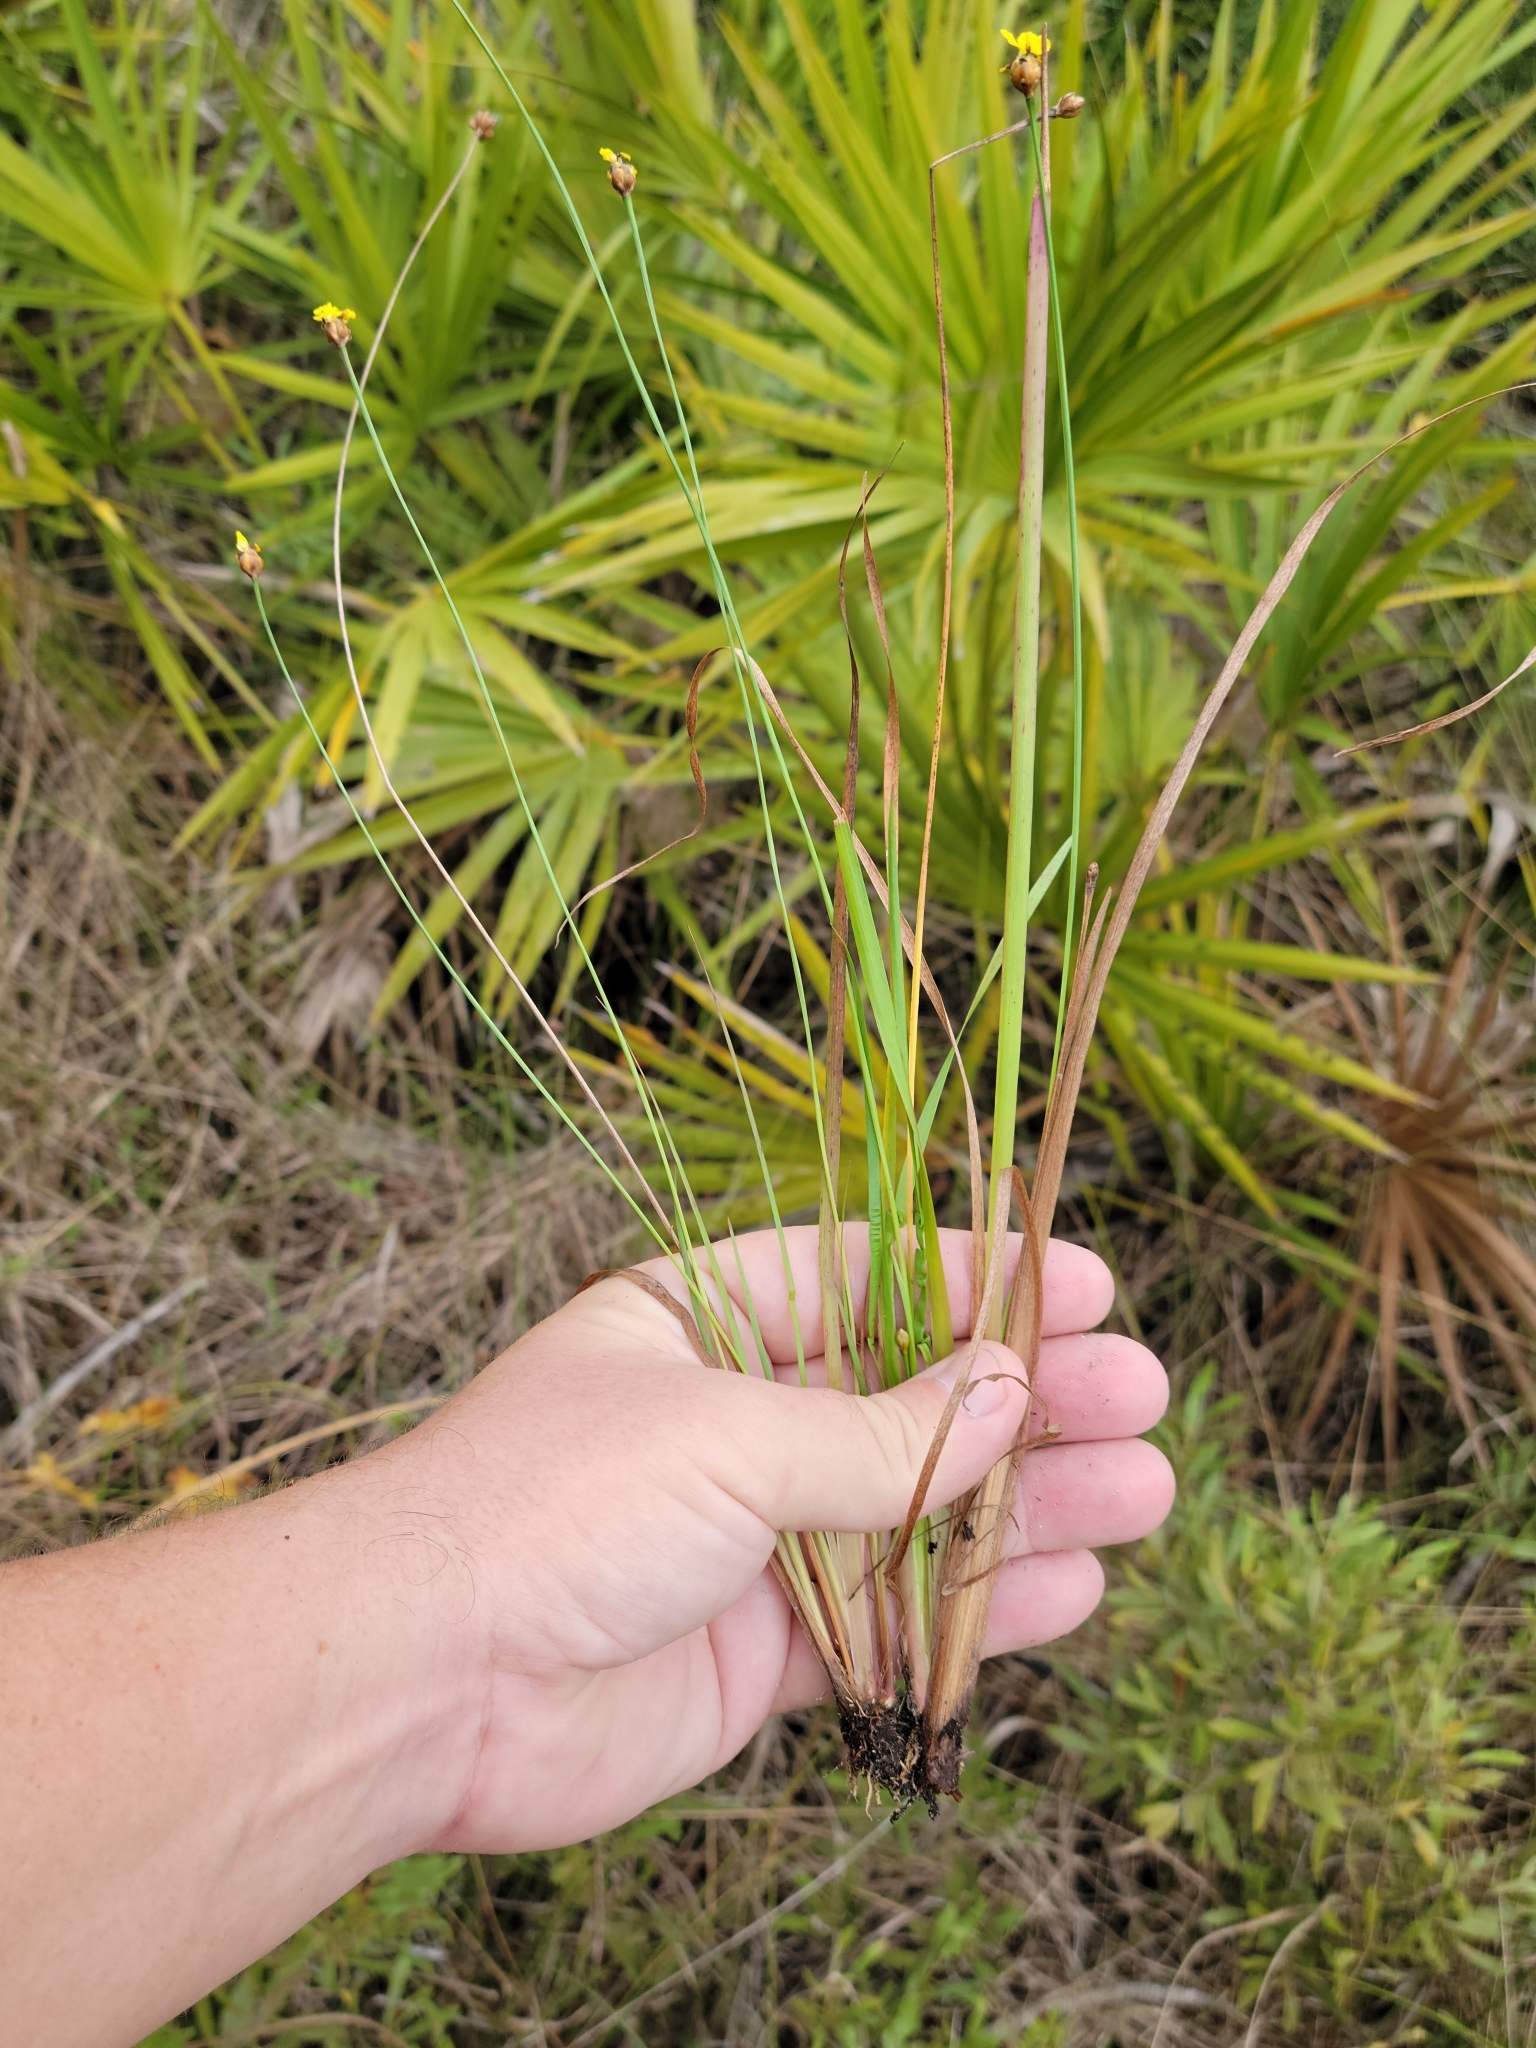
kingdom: Plantae
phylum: Tracheophyta
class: Liliopsida
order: Poales
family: Xyridaceae
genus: Xyris
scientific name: Xyris jupicai
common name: Richard's yelloweyed grass
